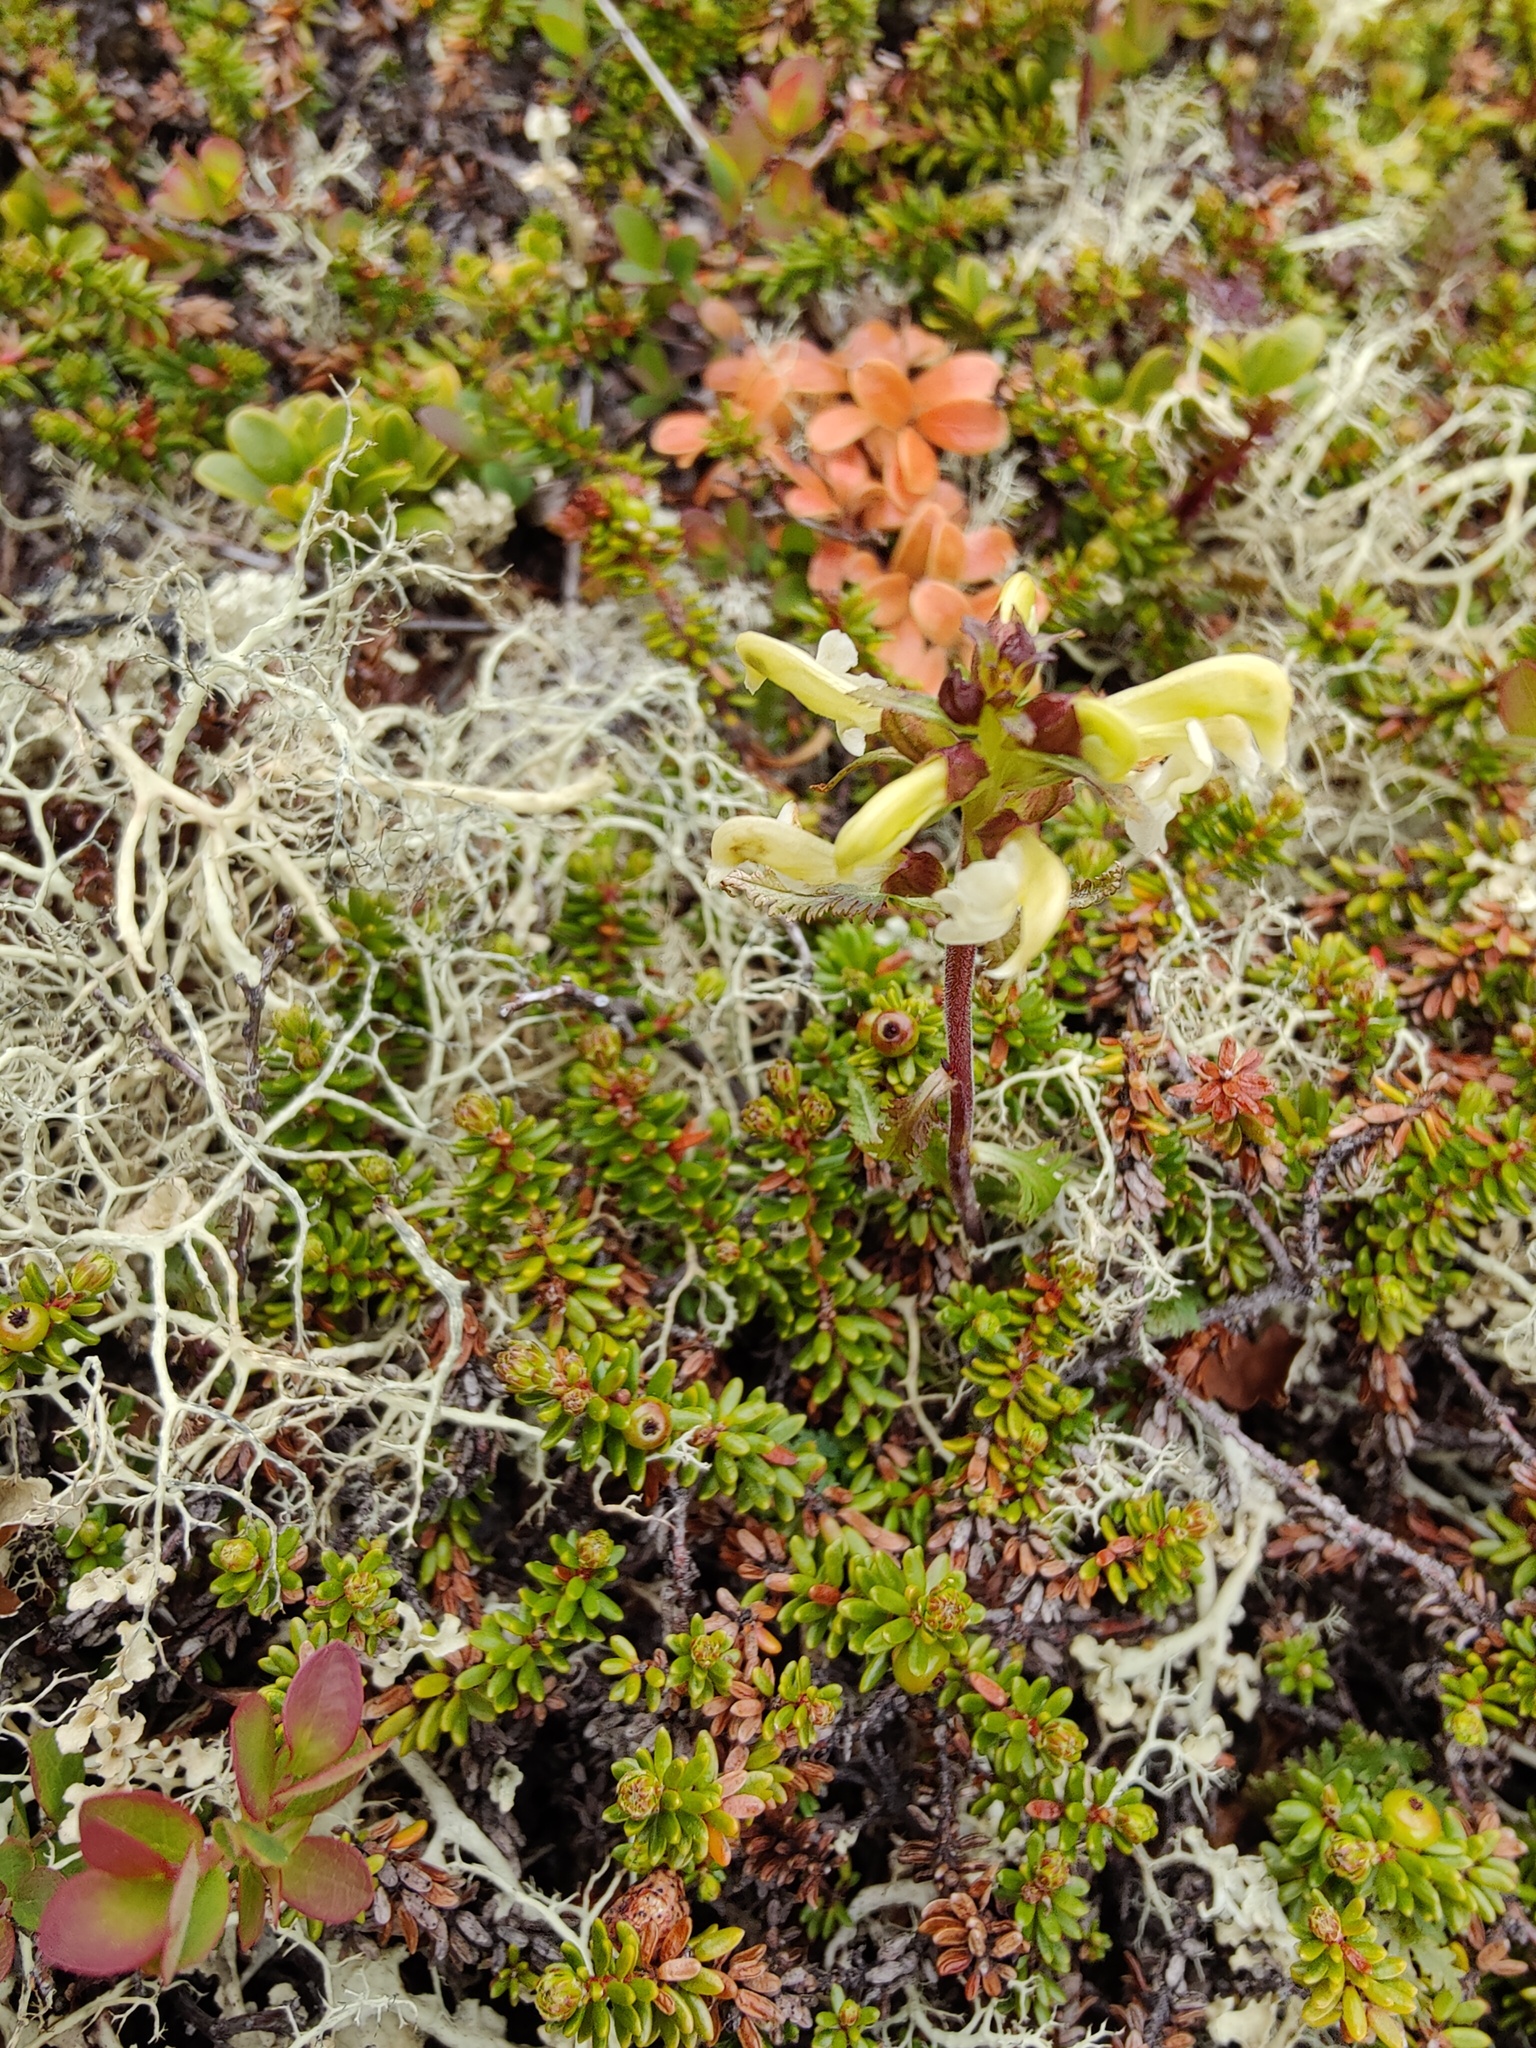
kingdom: Plantae
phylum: Tracheophyta
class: Magnoliopsida
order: Lamiales
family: Orobanchaceae
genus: Pedicularis
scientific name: Pedicularis lapponica
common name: Lapland lousewort
